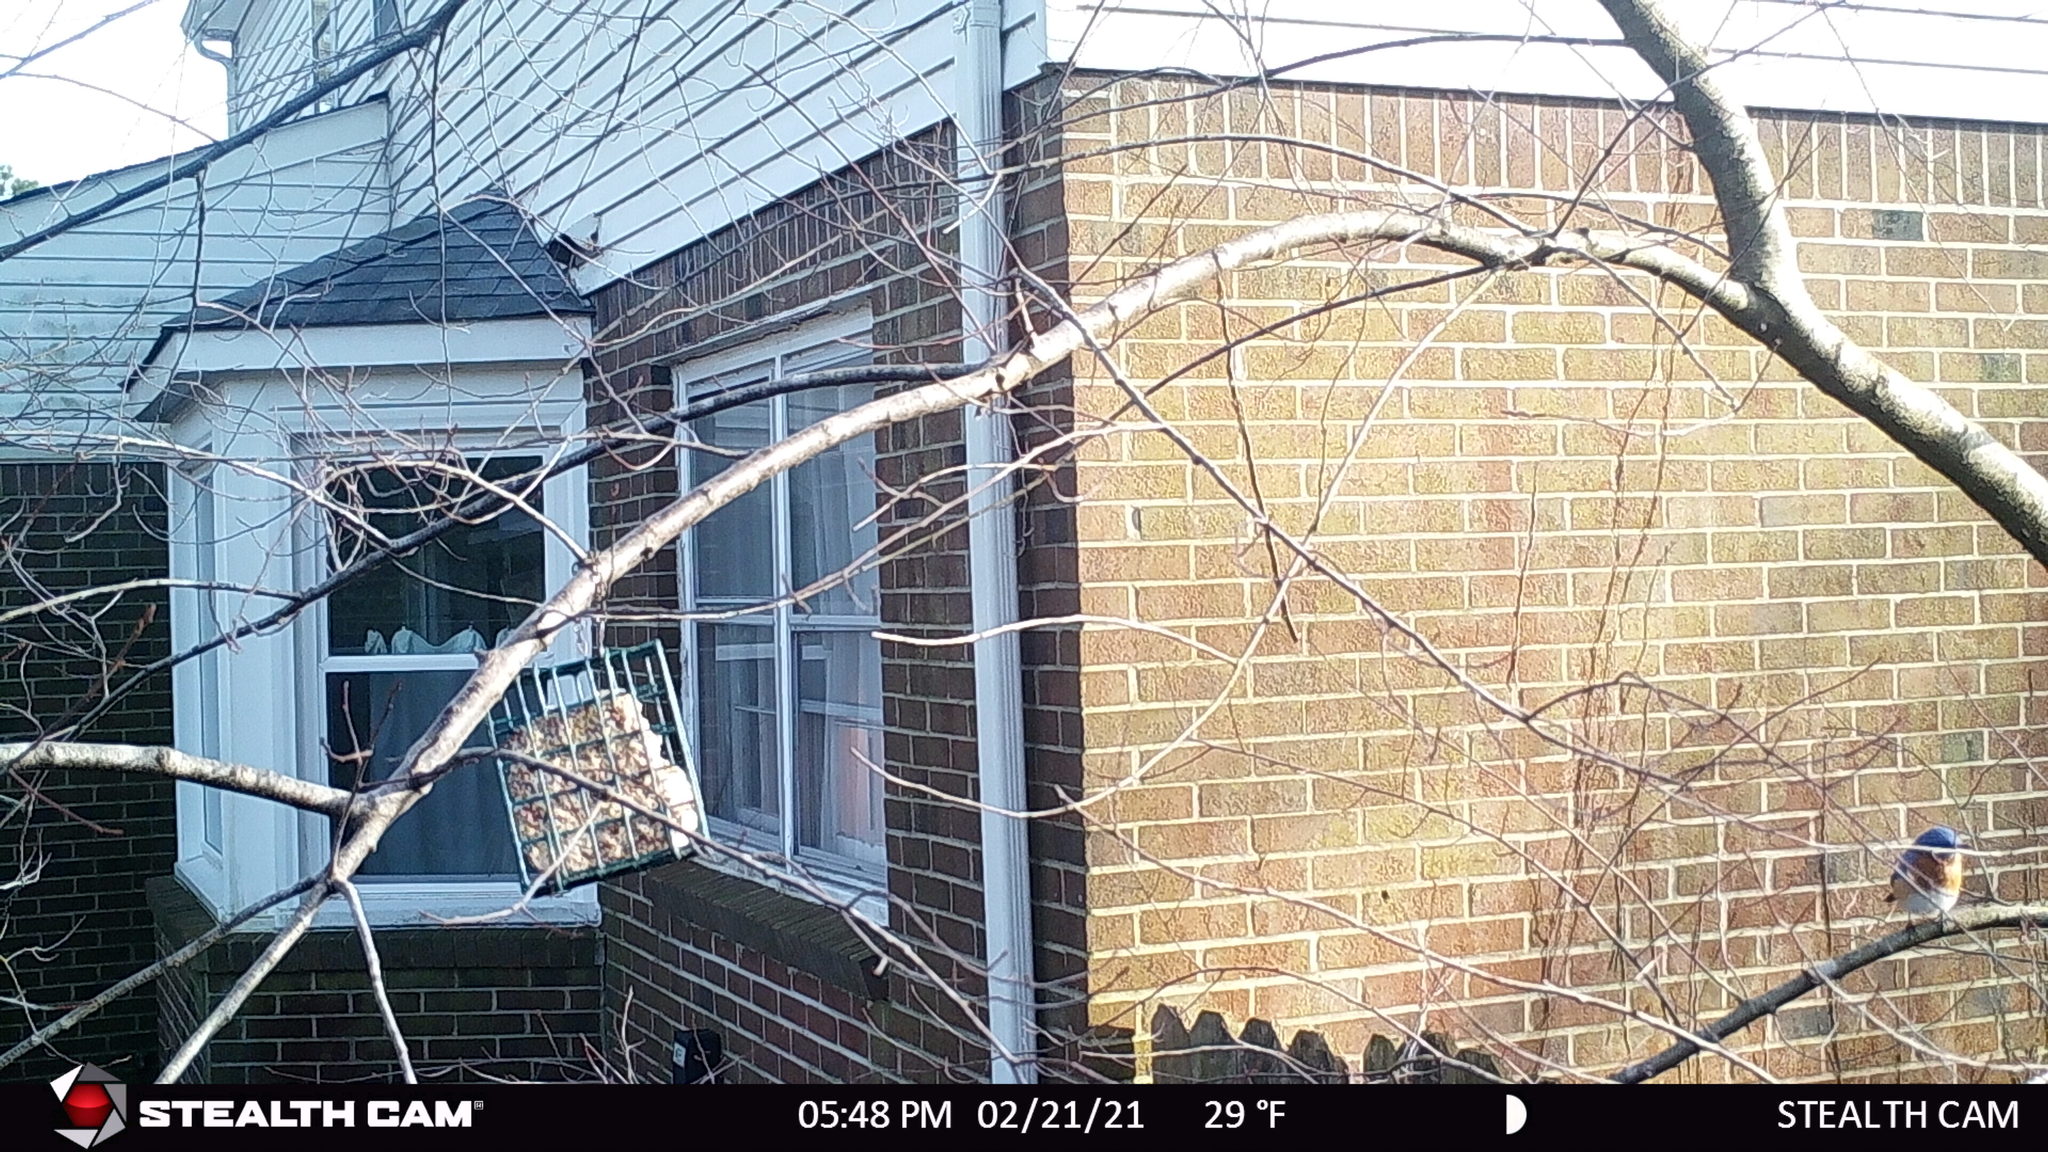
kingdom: Animalia
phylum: Chordata
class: Aves
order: Passeriformes
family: Turdidae
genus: Sialia
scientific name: Sialia sialis
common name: Eastern bluebird
